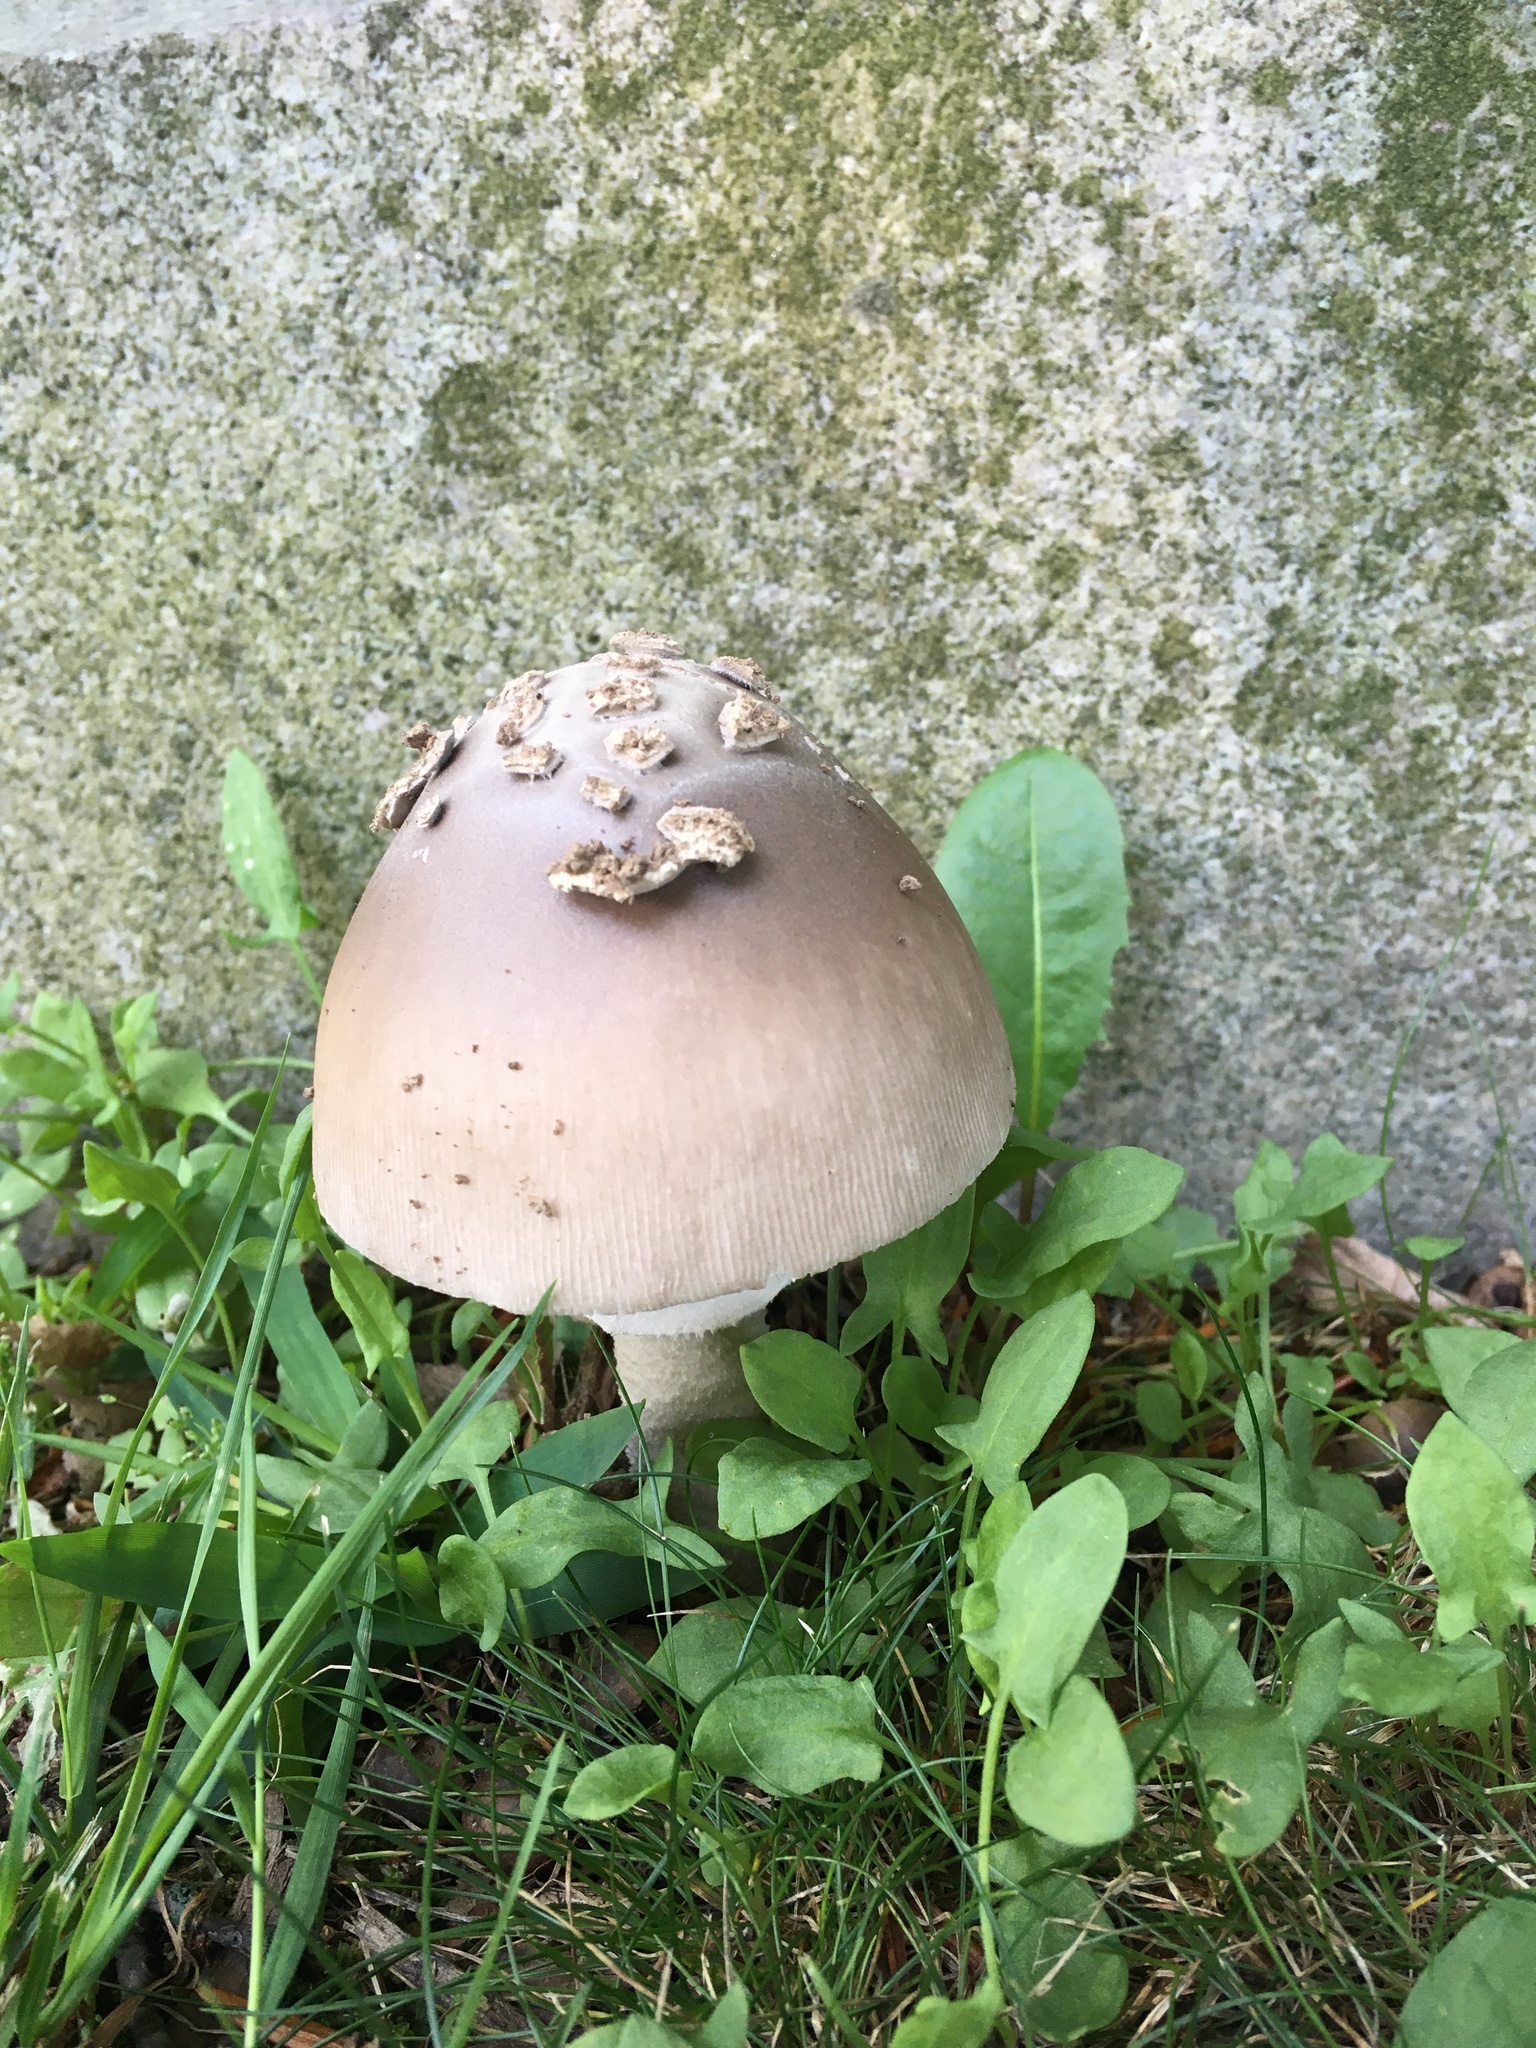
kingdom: Fungi
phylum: Basidiomycota
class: Agaricomycetes
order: Agaricales
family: Amanitaceae
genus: Amanita
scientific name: Amanita spreta
